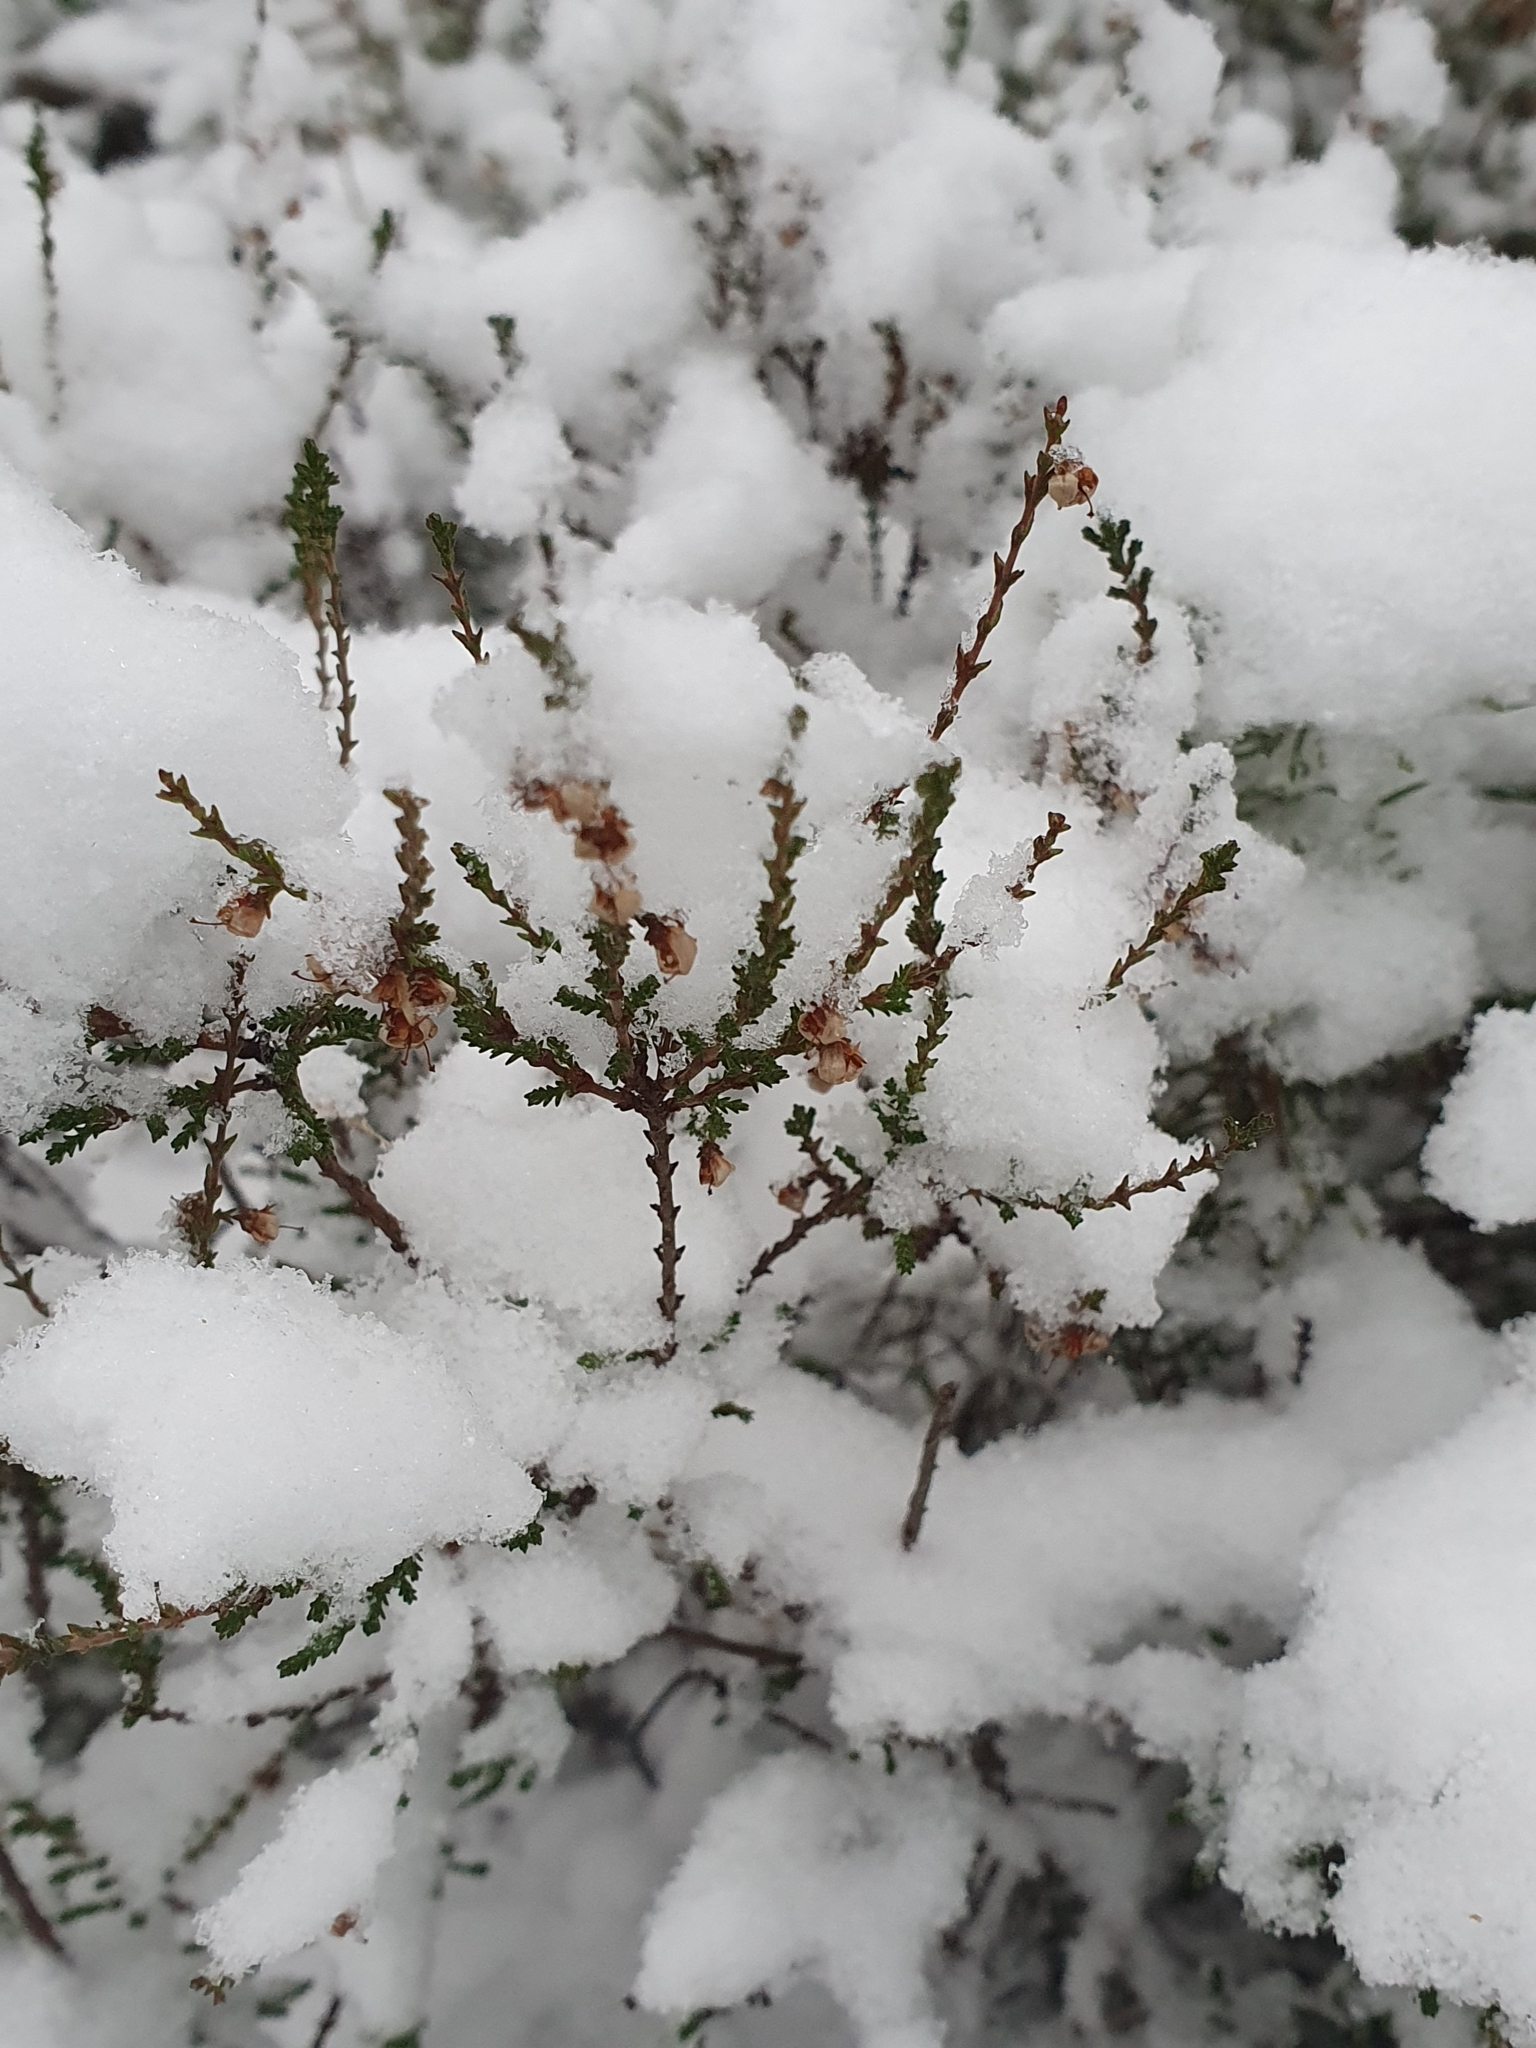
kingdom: Plantae
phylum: Tracheophyta
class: Magnoliopsida
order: Ericales
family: Ericaceae
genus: Calluna
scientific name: Calluna vulgaris
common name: Heather
